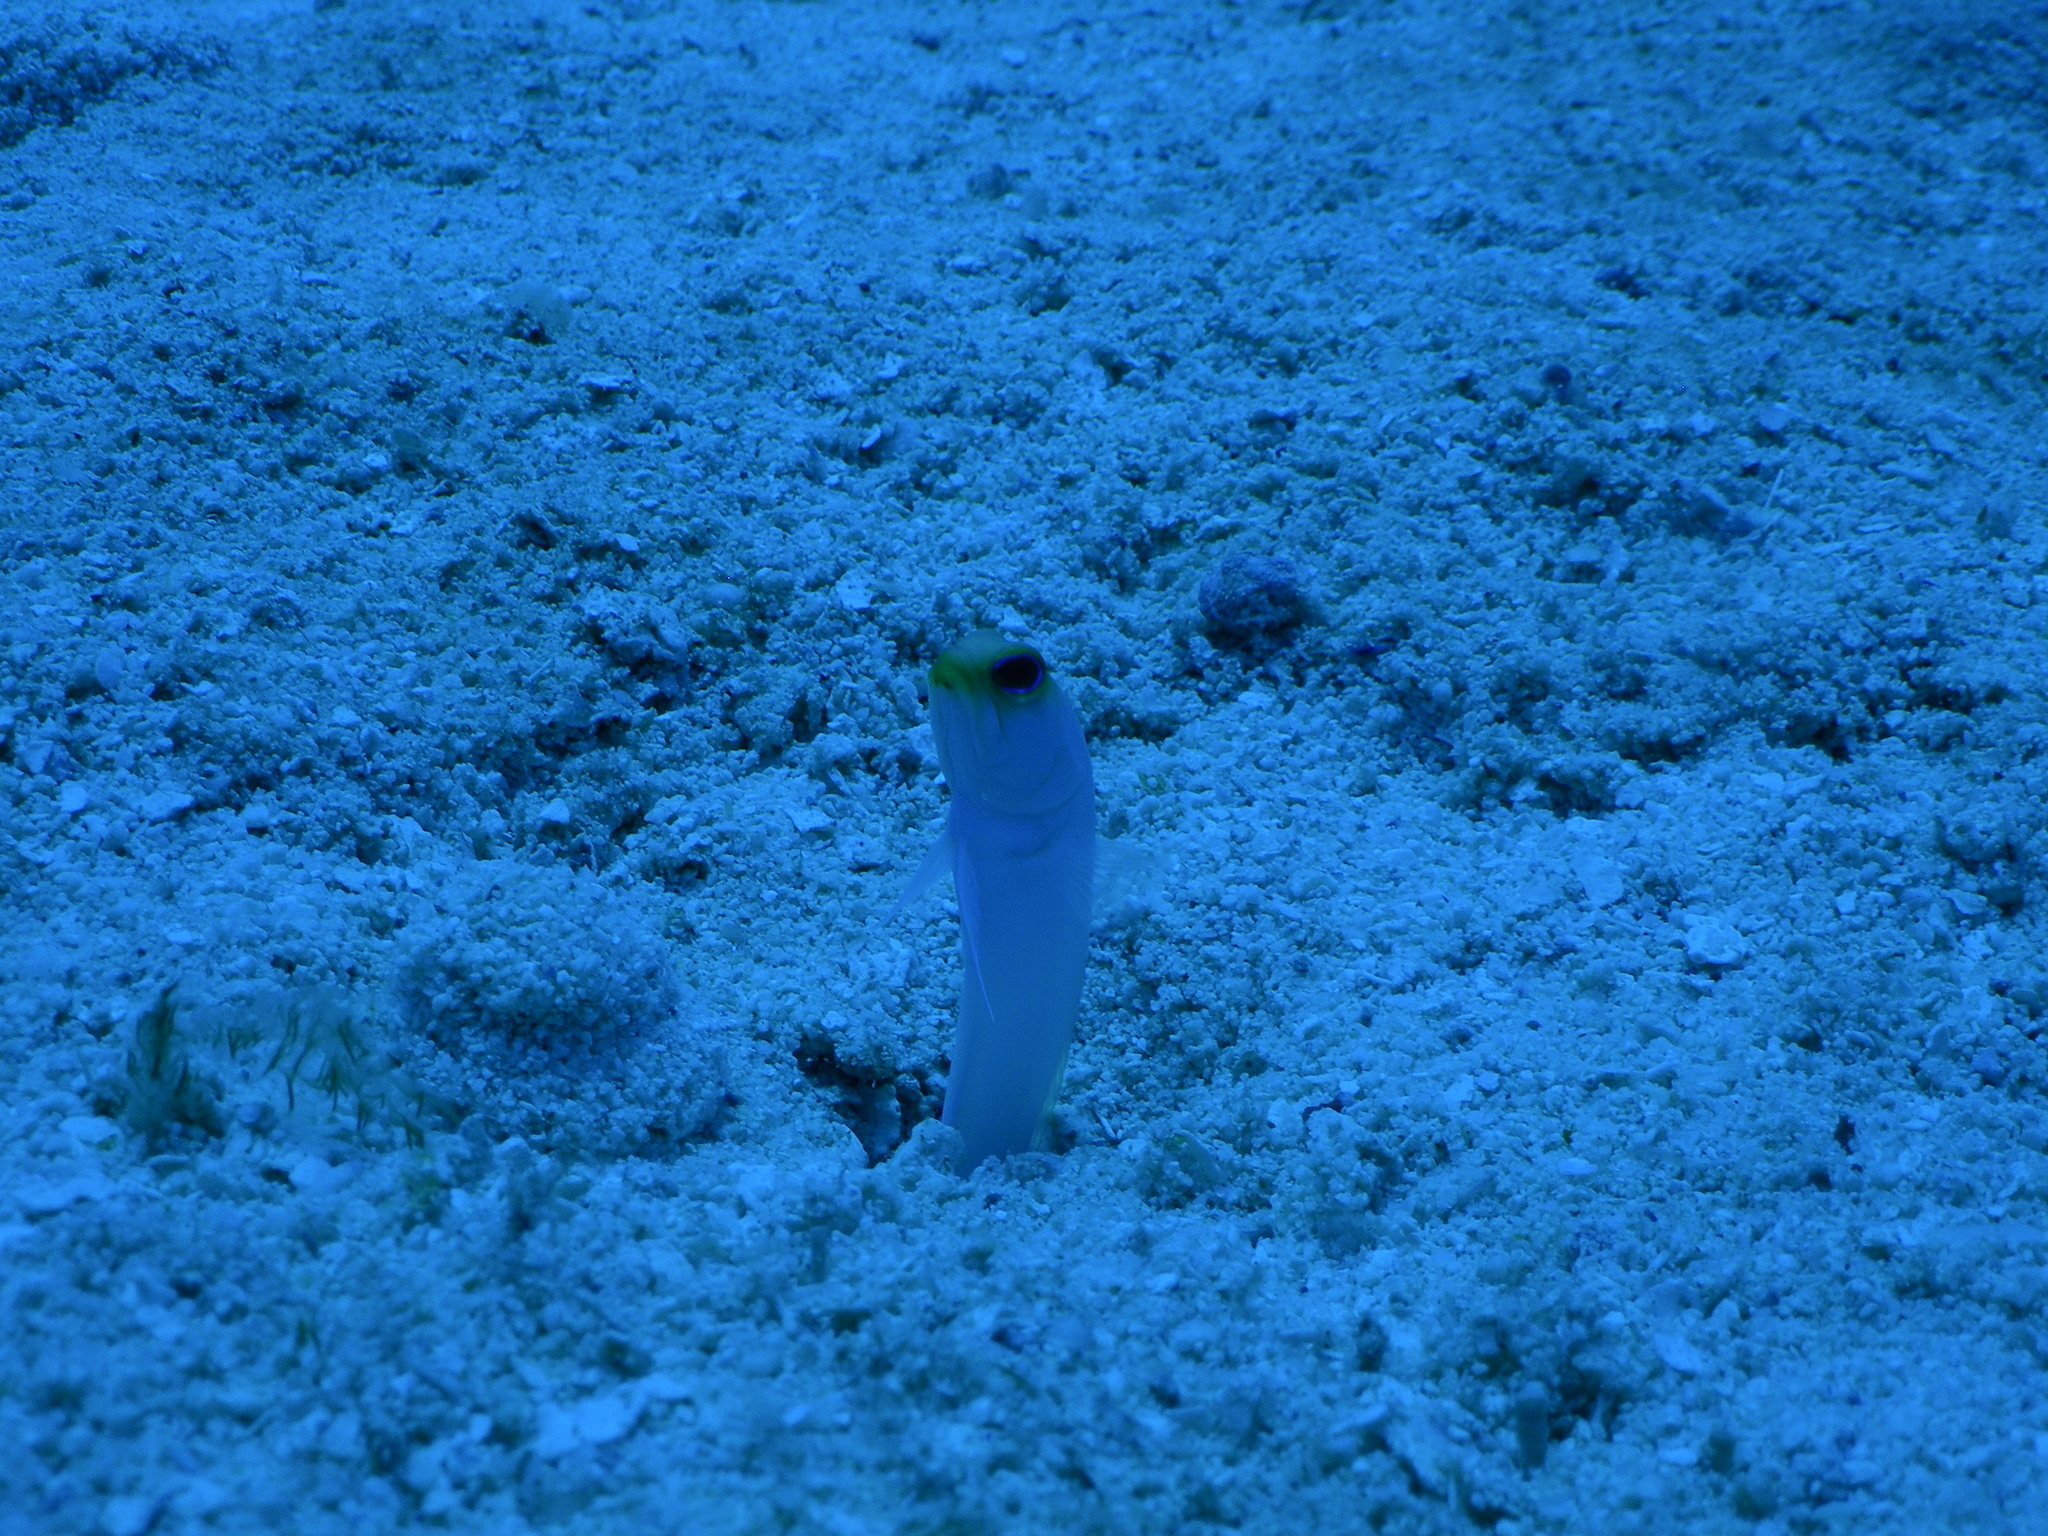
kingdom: Animalia
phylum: Chordata
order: Perciformes
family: Opistognathidae
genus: Opistognathus
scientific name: Opistognathus aurifrons
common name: Yellowhead jawfish
